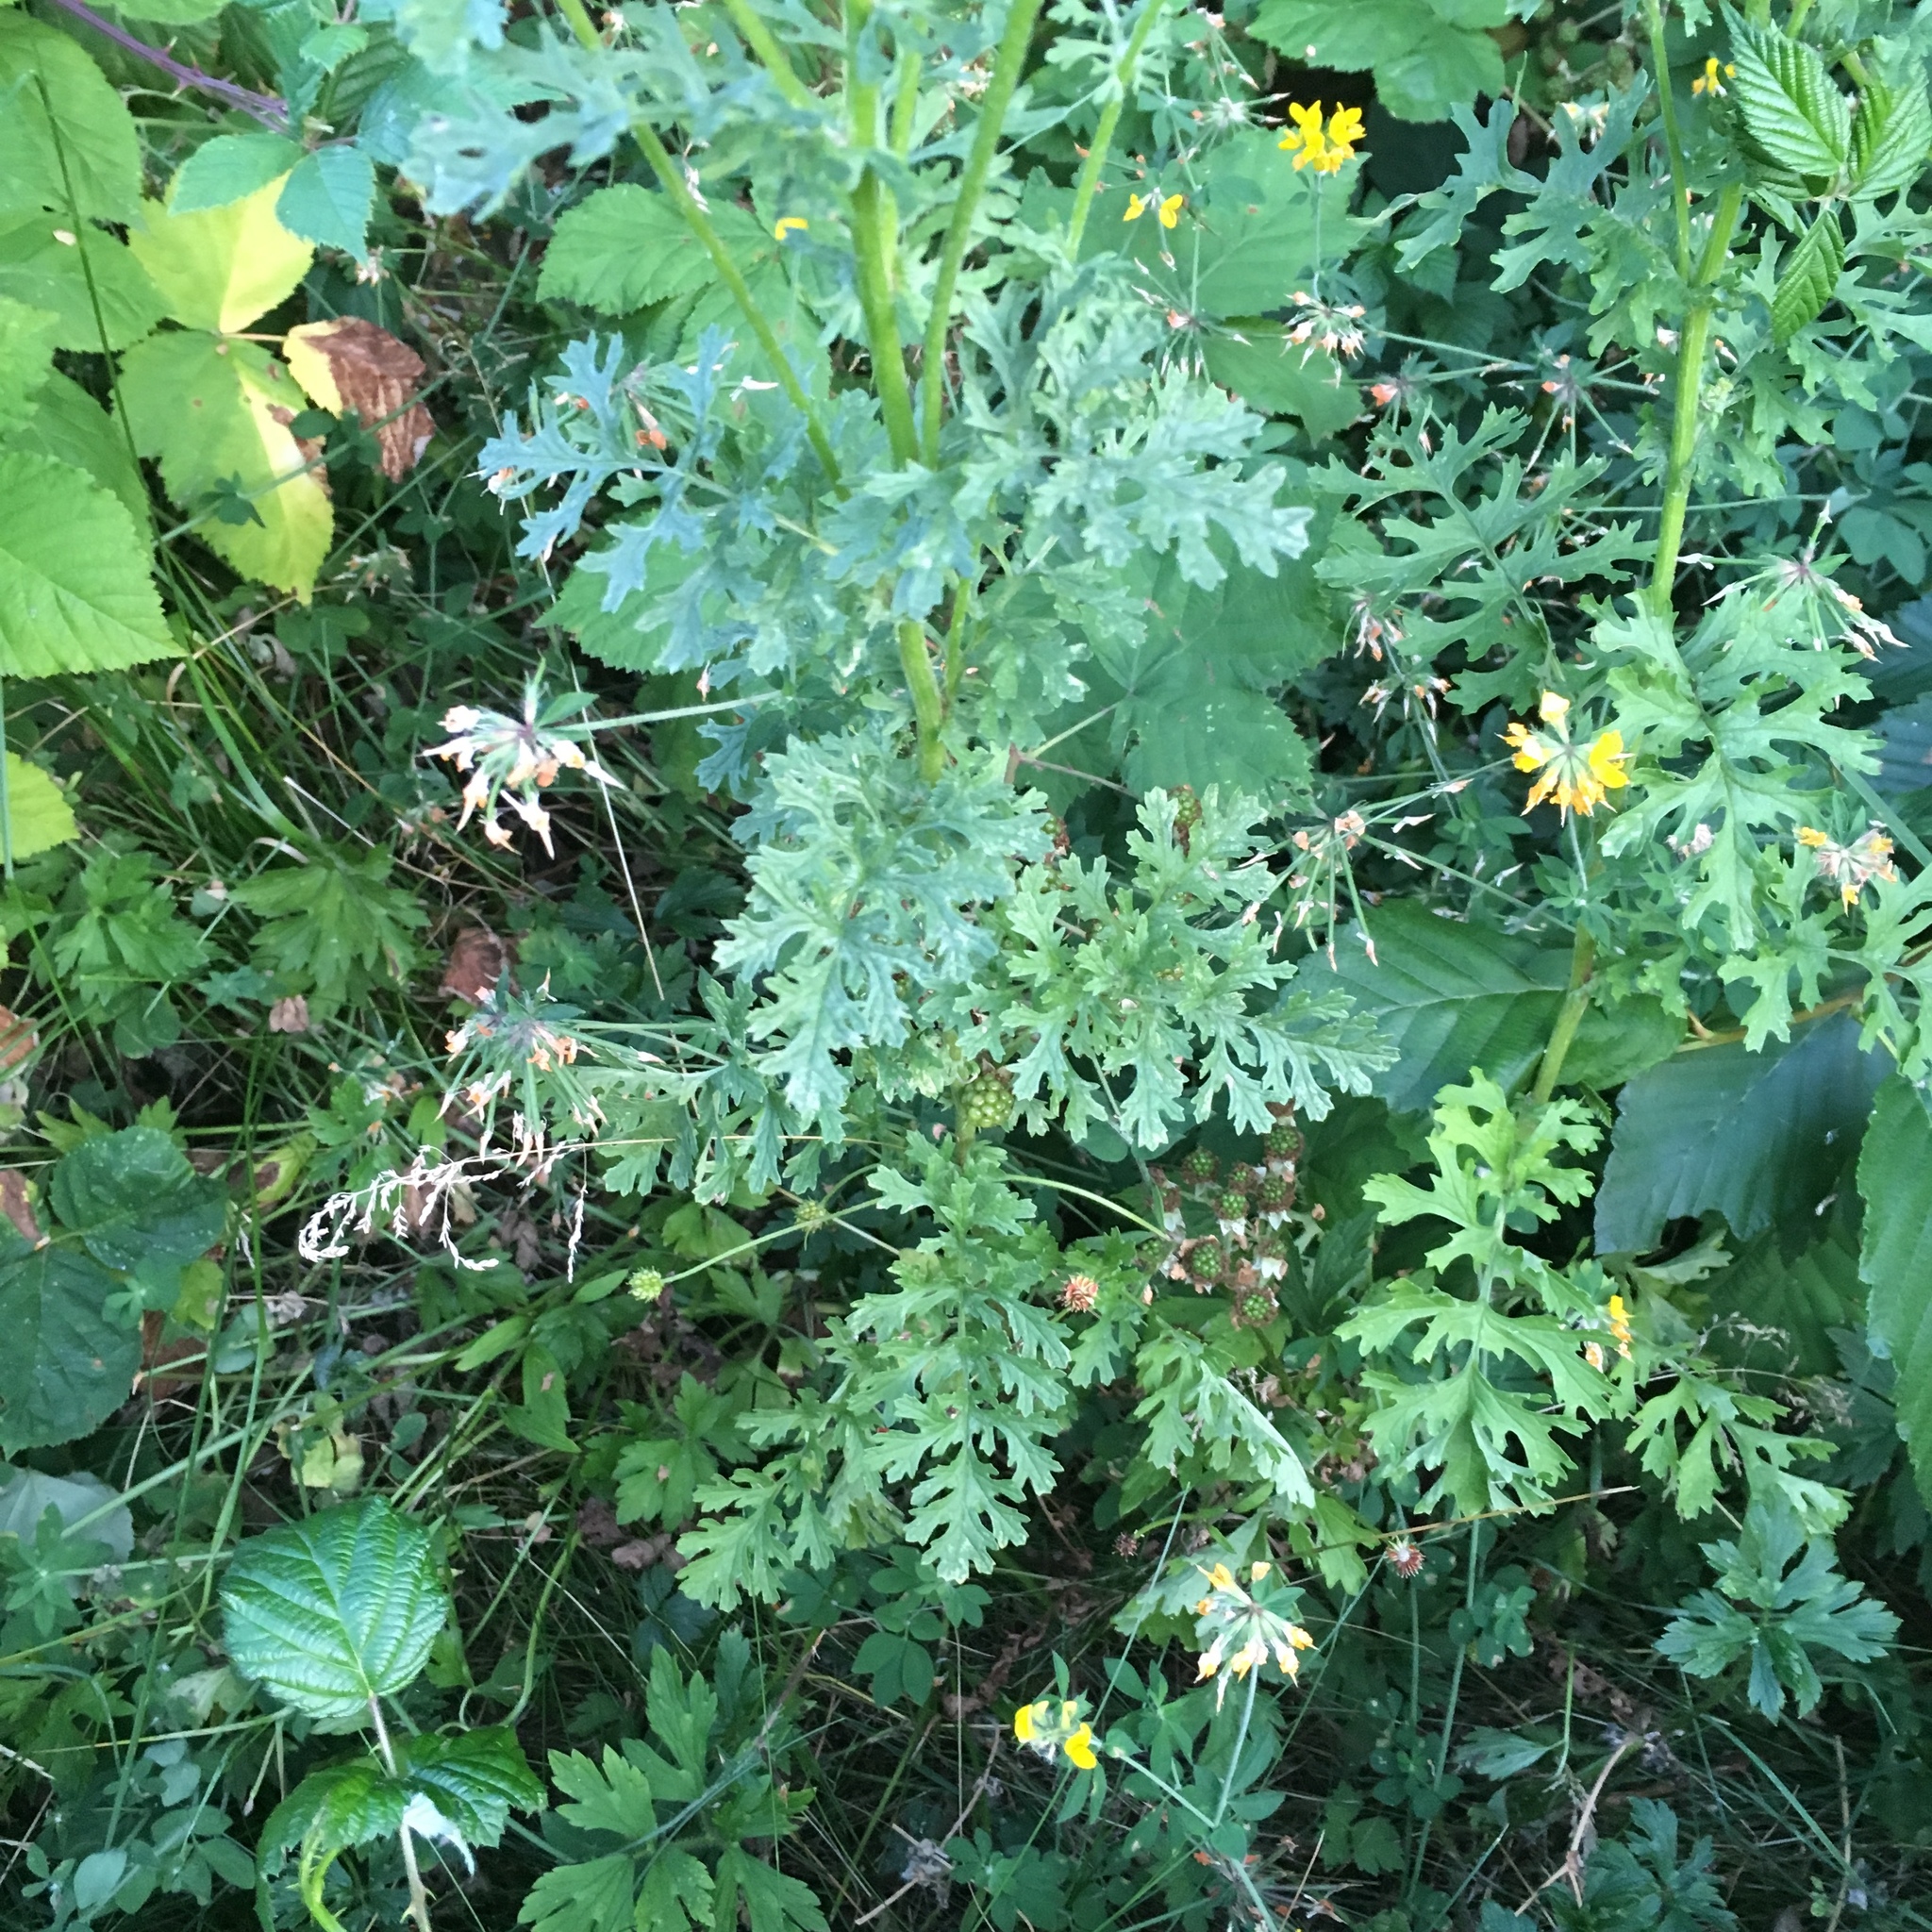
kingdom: Plantae
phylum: Tracheophyta
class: Magnoliopsida
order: Asterales
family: Asteraceae
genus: Jacobaea
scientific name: Jacobaea vulgaris
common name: Stinking willie
